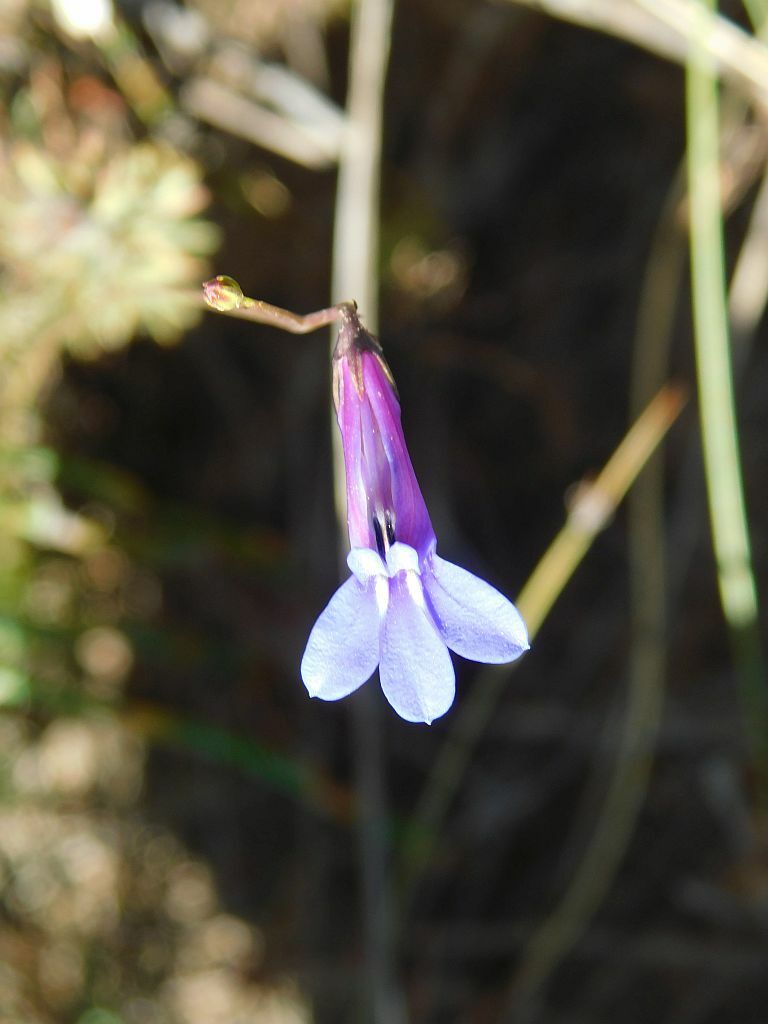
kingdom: Plantae
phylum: Tracheophyta
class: Magnoliopsida
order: Asterales
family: Campanulaceae
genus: Lobelia
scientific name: Lobelia coronopifolia
